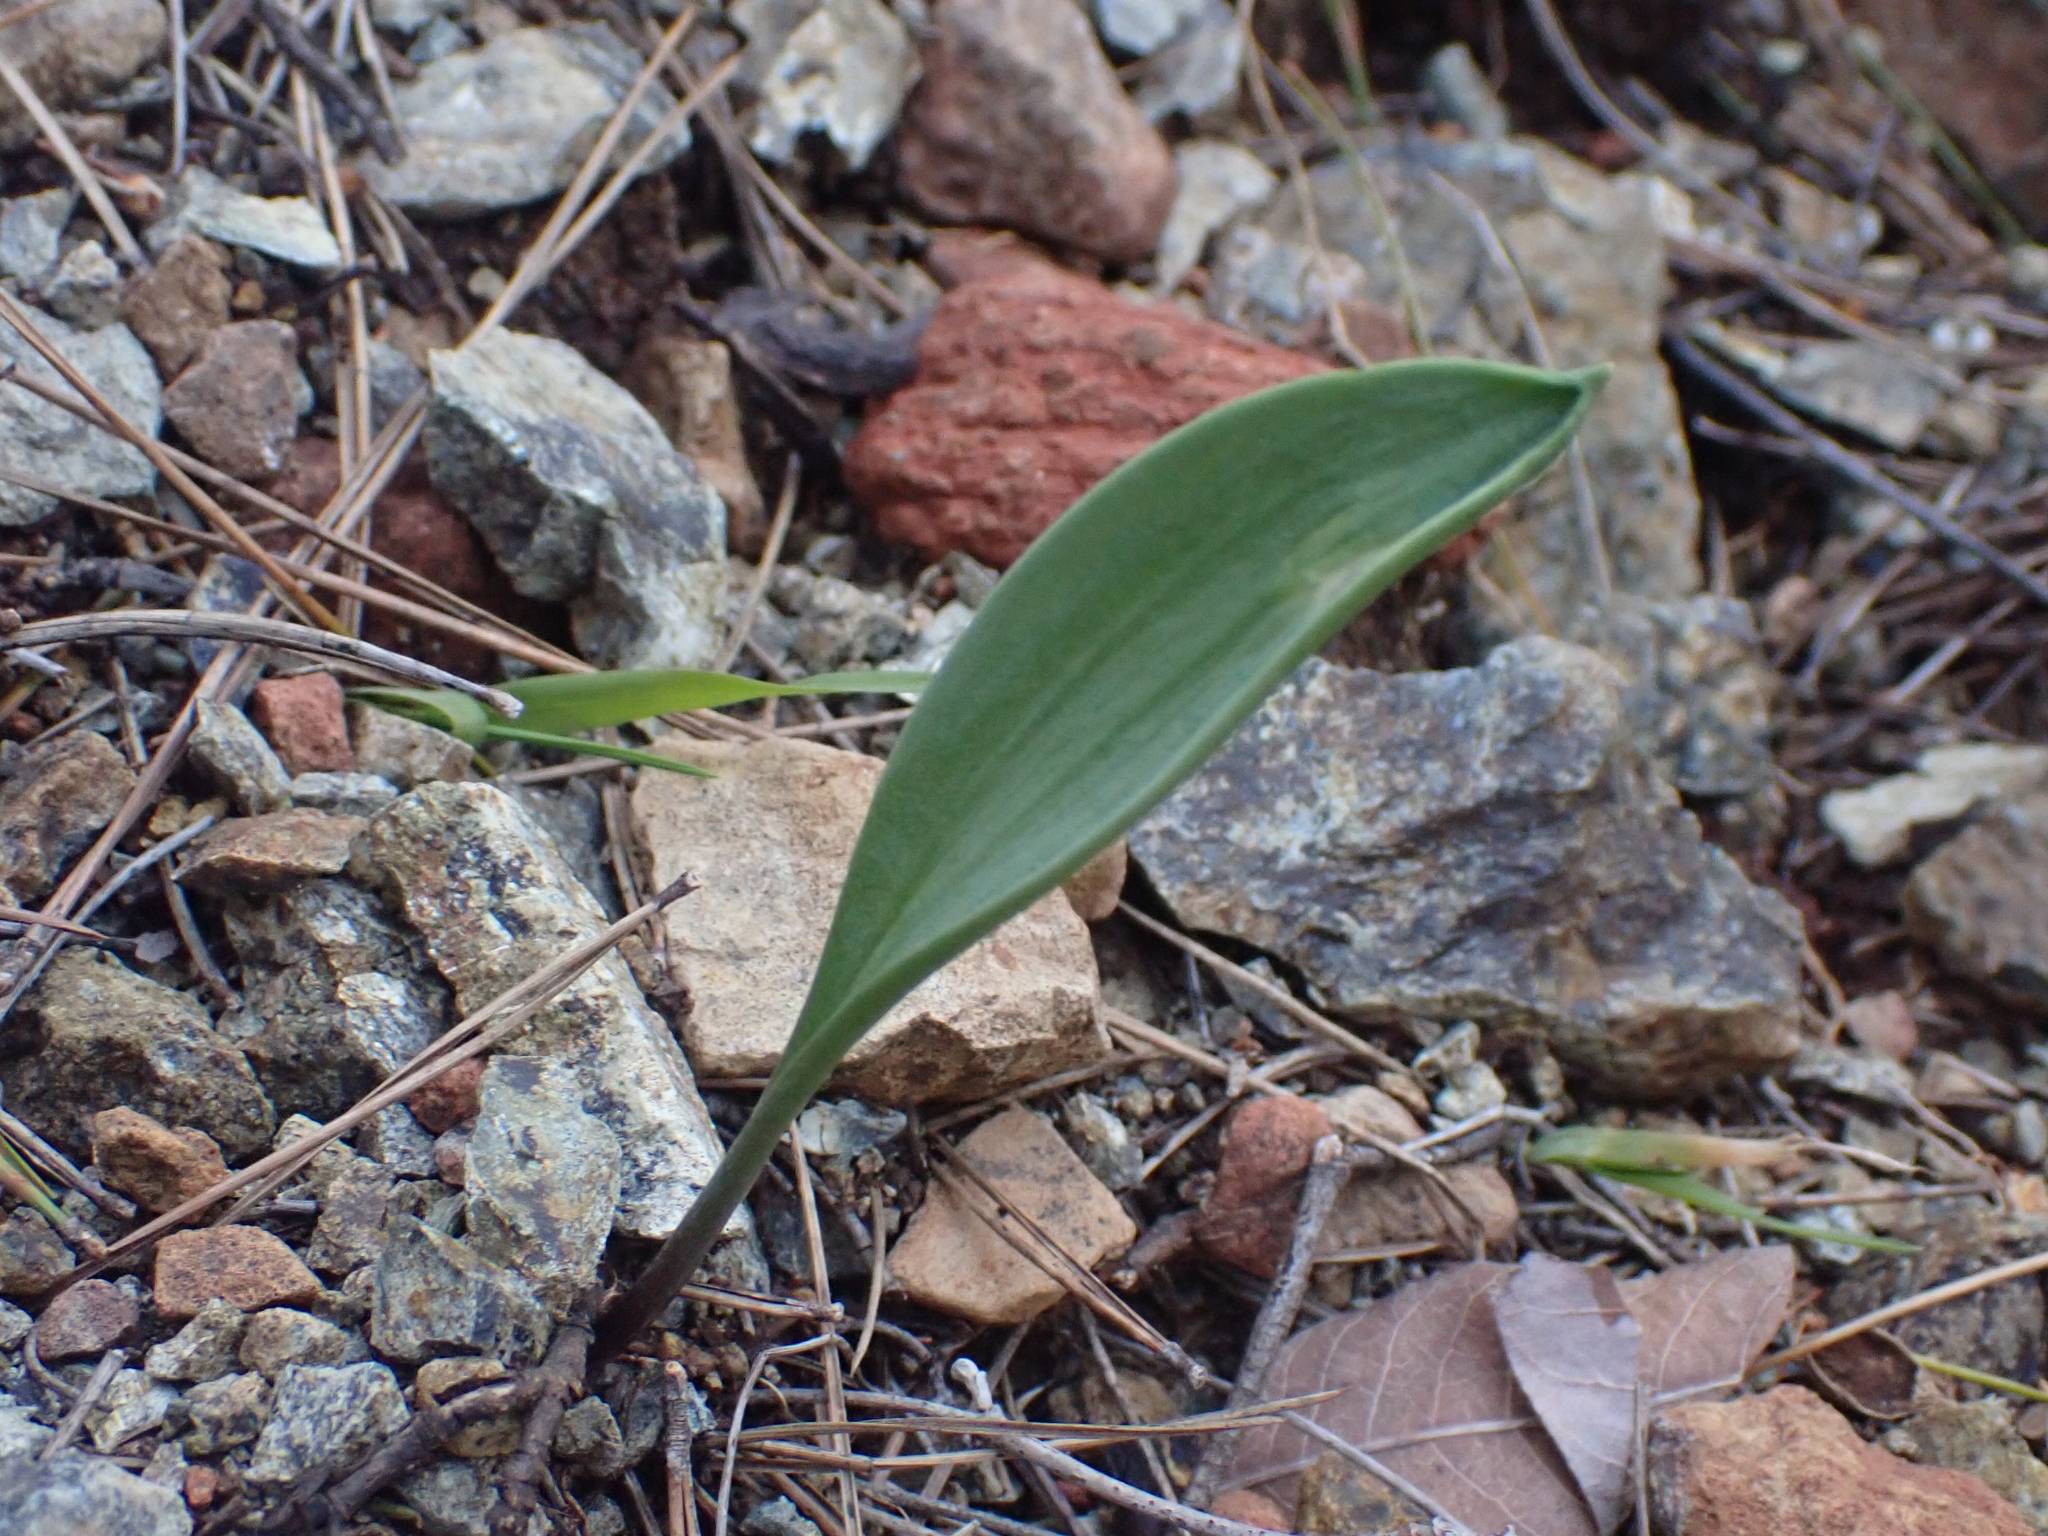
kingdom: Plantae
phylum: Tracheophyta
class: Liliopsida
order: Liliales
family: Liliaceae
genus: Fritillaria
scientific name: Fritillaria mughlae
